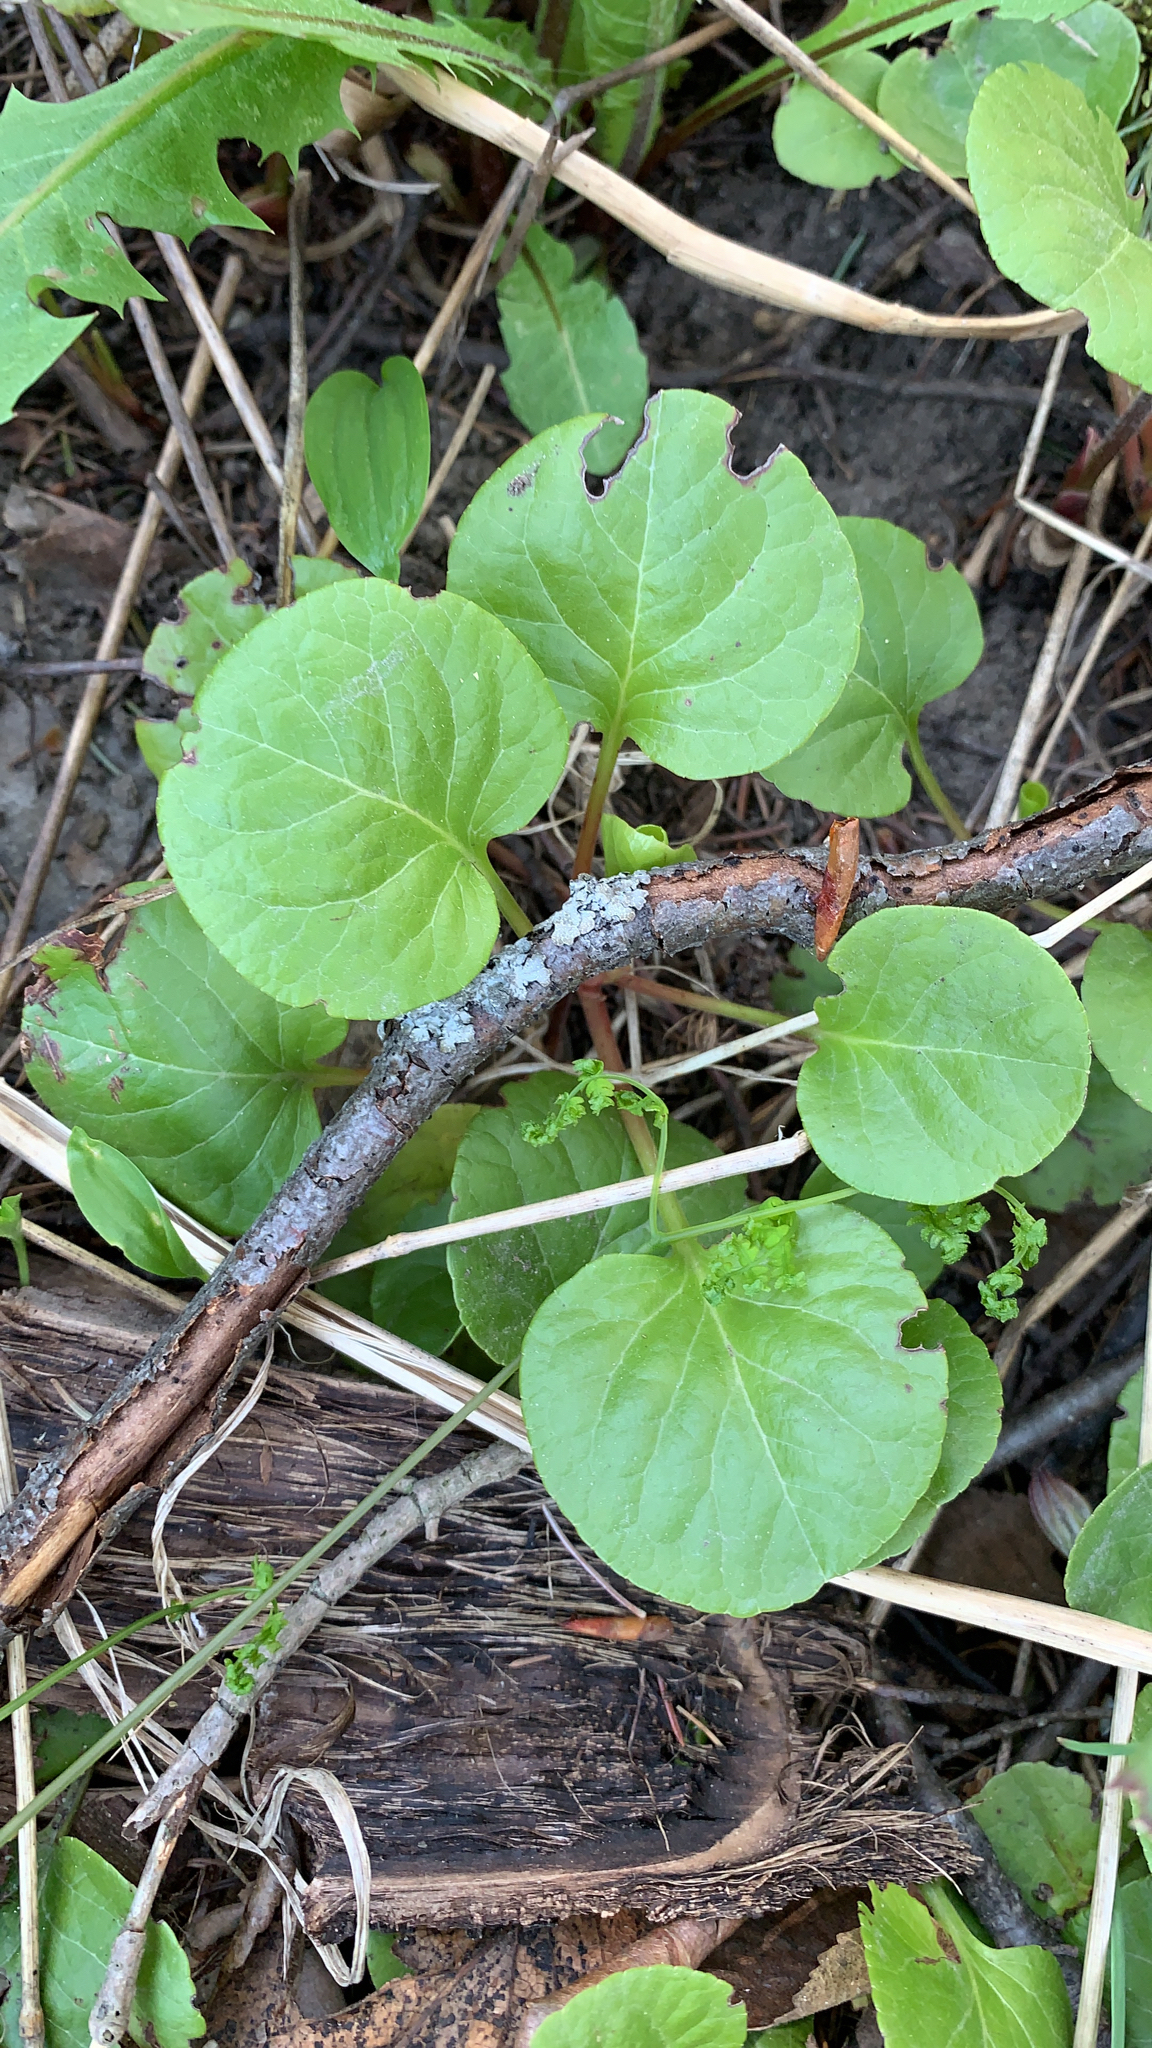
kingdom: Plantae
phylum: Tracheophyta
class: Magnoliopsida
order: Ericales
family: Ericaceae
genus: Pyrola
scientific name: Pyrola asarifolia
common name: Bog wintergreen
